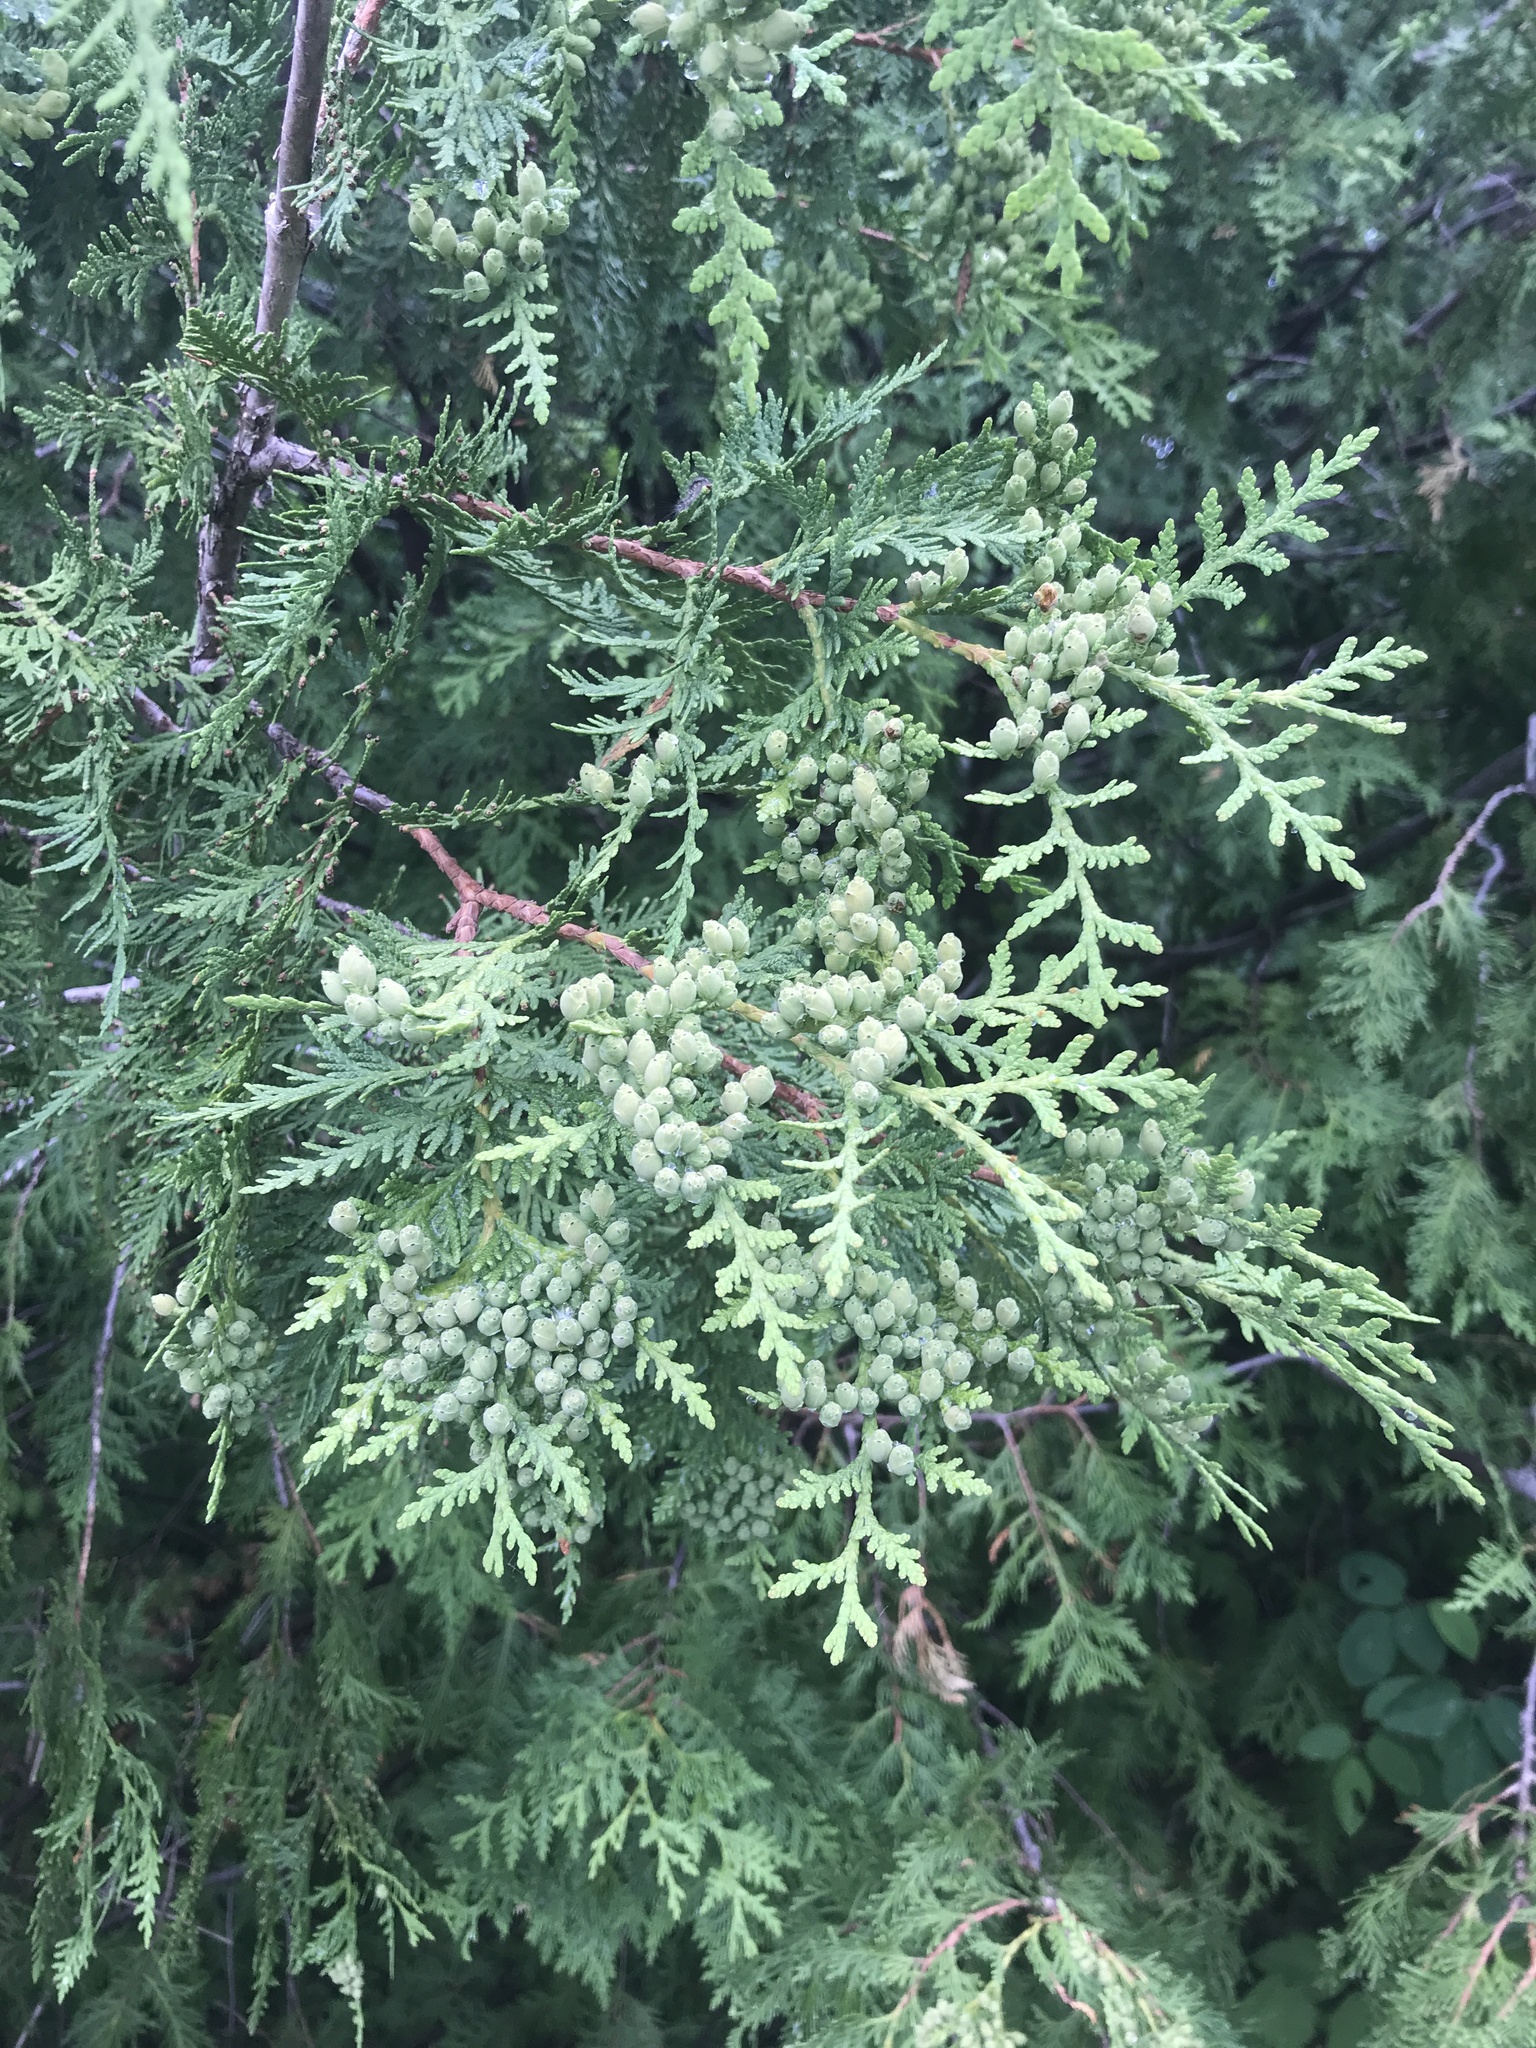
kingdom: Plantae
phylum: Tracheophyta
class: Pinopsida
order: Pinales
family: Cupressaceae
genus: Thuja
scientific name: Thuja occidentalis
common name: Northern white-cedar
